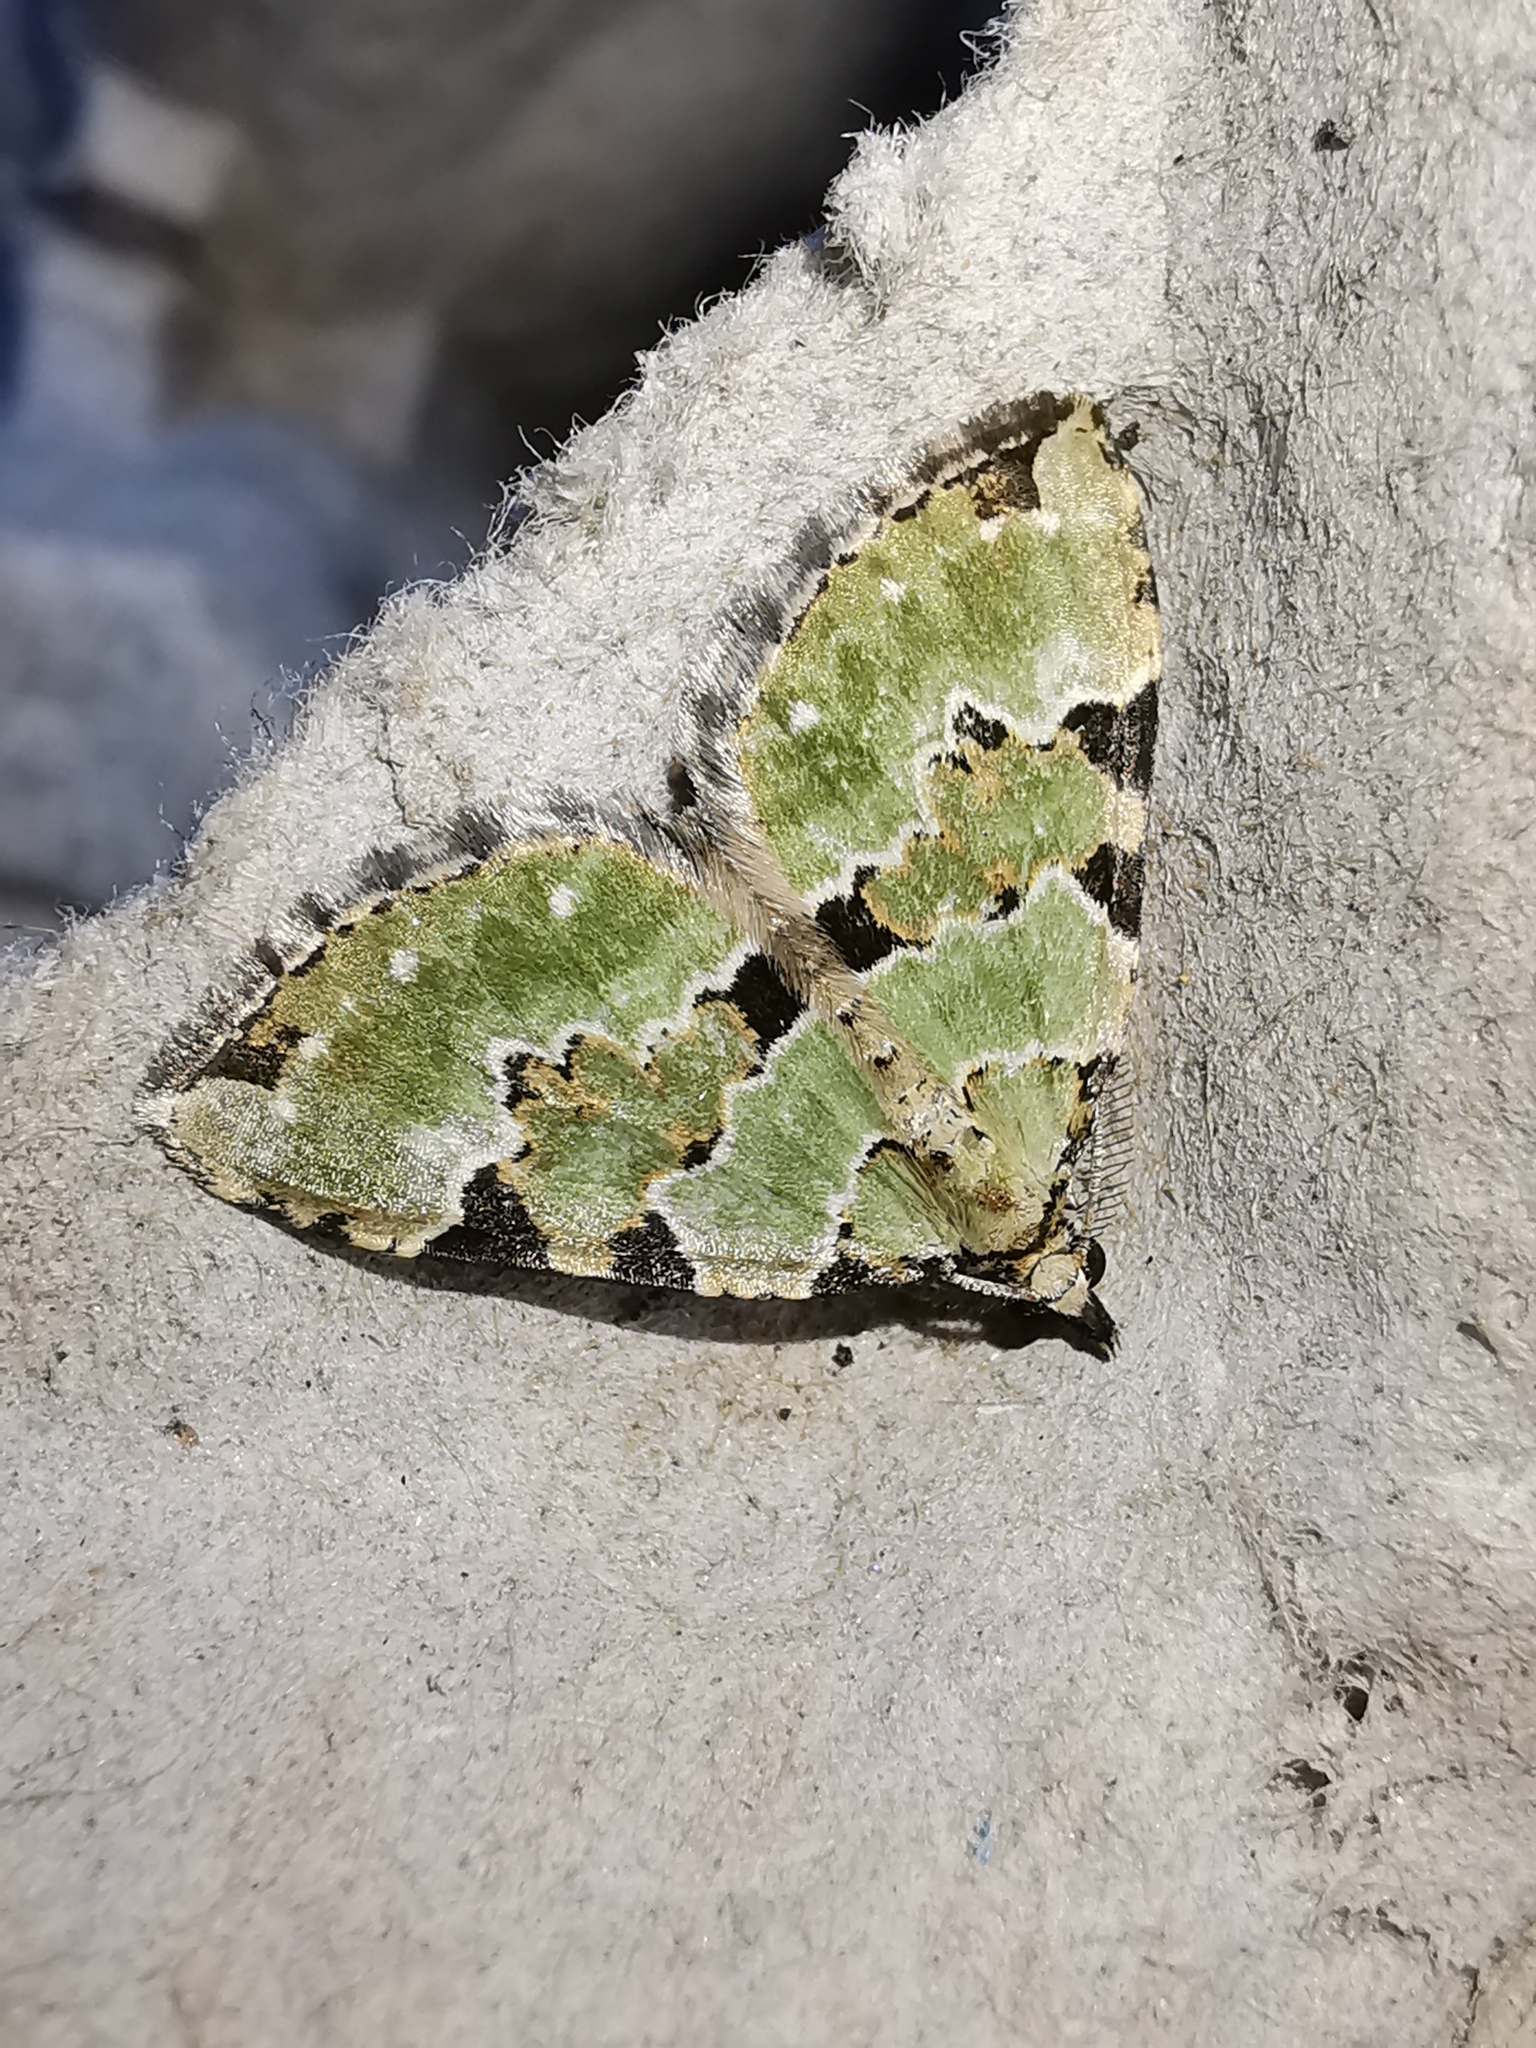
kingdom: Animalia
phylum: Arthropoda
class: Insecta
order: Lepidoptera
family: Geometridae
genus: Colostygia
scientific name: Colostygia pectinataria
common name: Green carpet
